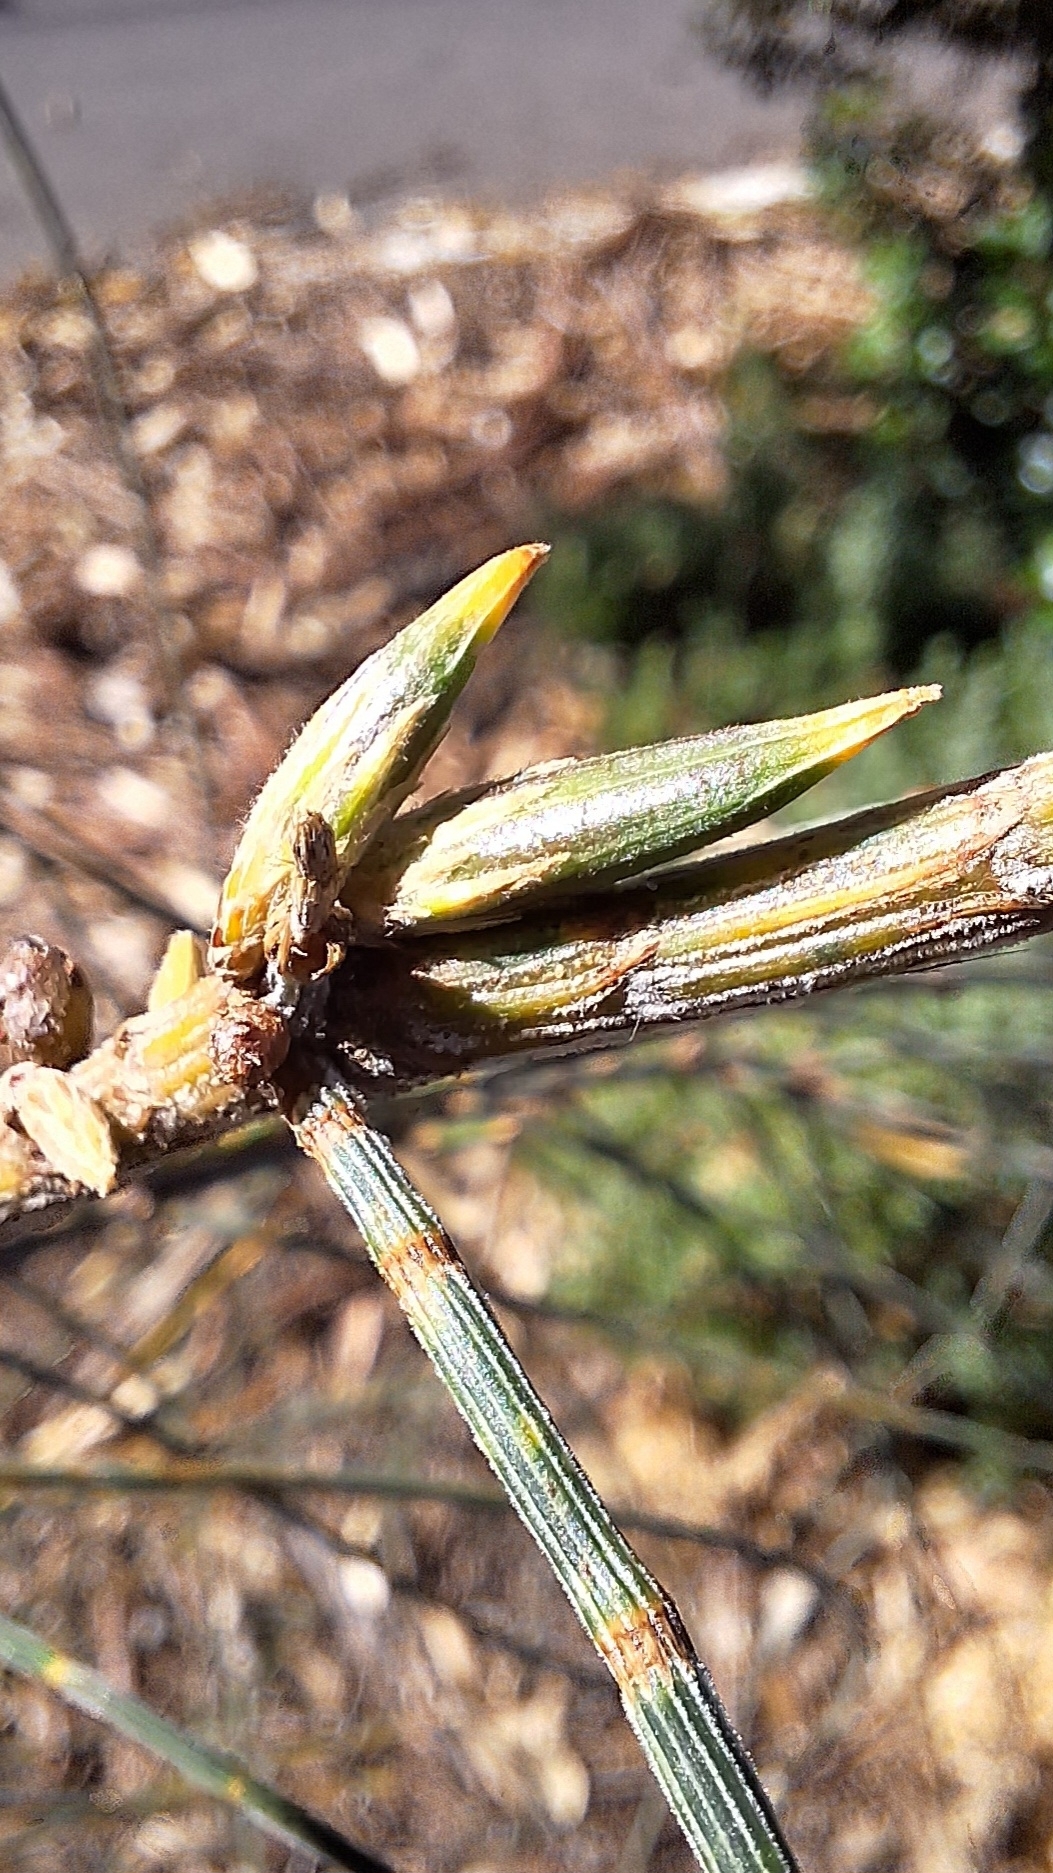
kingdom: Animalia
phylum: Arthropoda
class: Insecta
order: Hemiptera
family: Eriococcidae
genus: Cylindrococcus
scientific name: Cylindrococcus casuarinae
